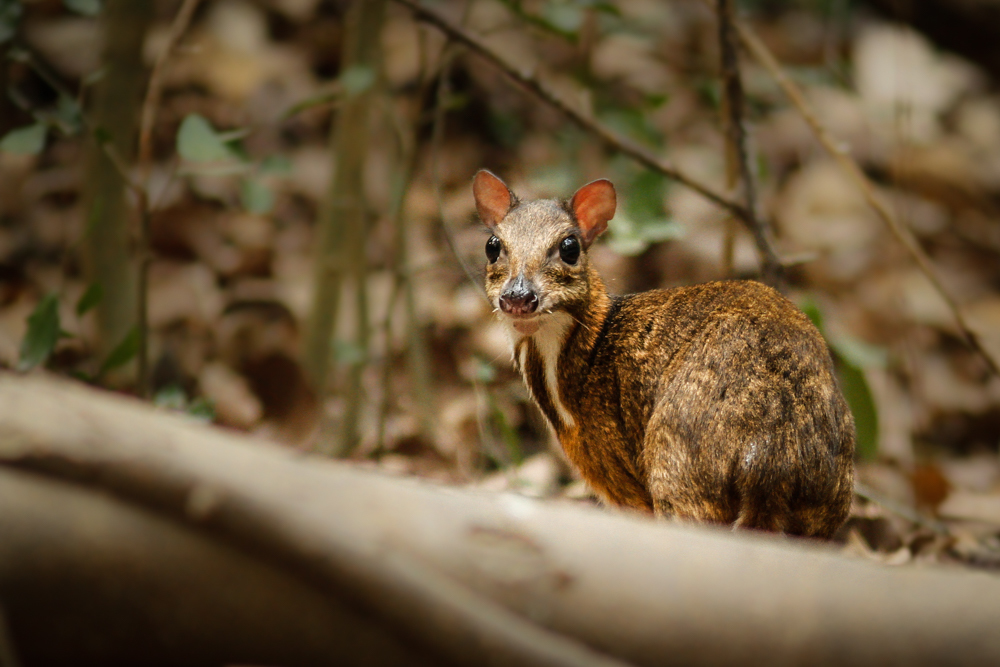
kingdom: Animalia
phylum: Chordata
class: Mammalia
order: Artiodactyla
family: Tragulidae
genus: Tragulus
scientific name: Tragulus kanchil
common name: Lesser mouse-deer
